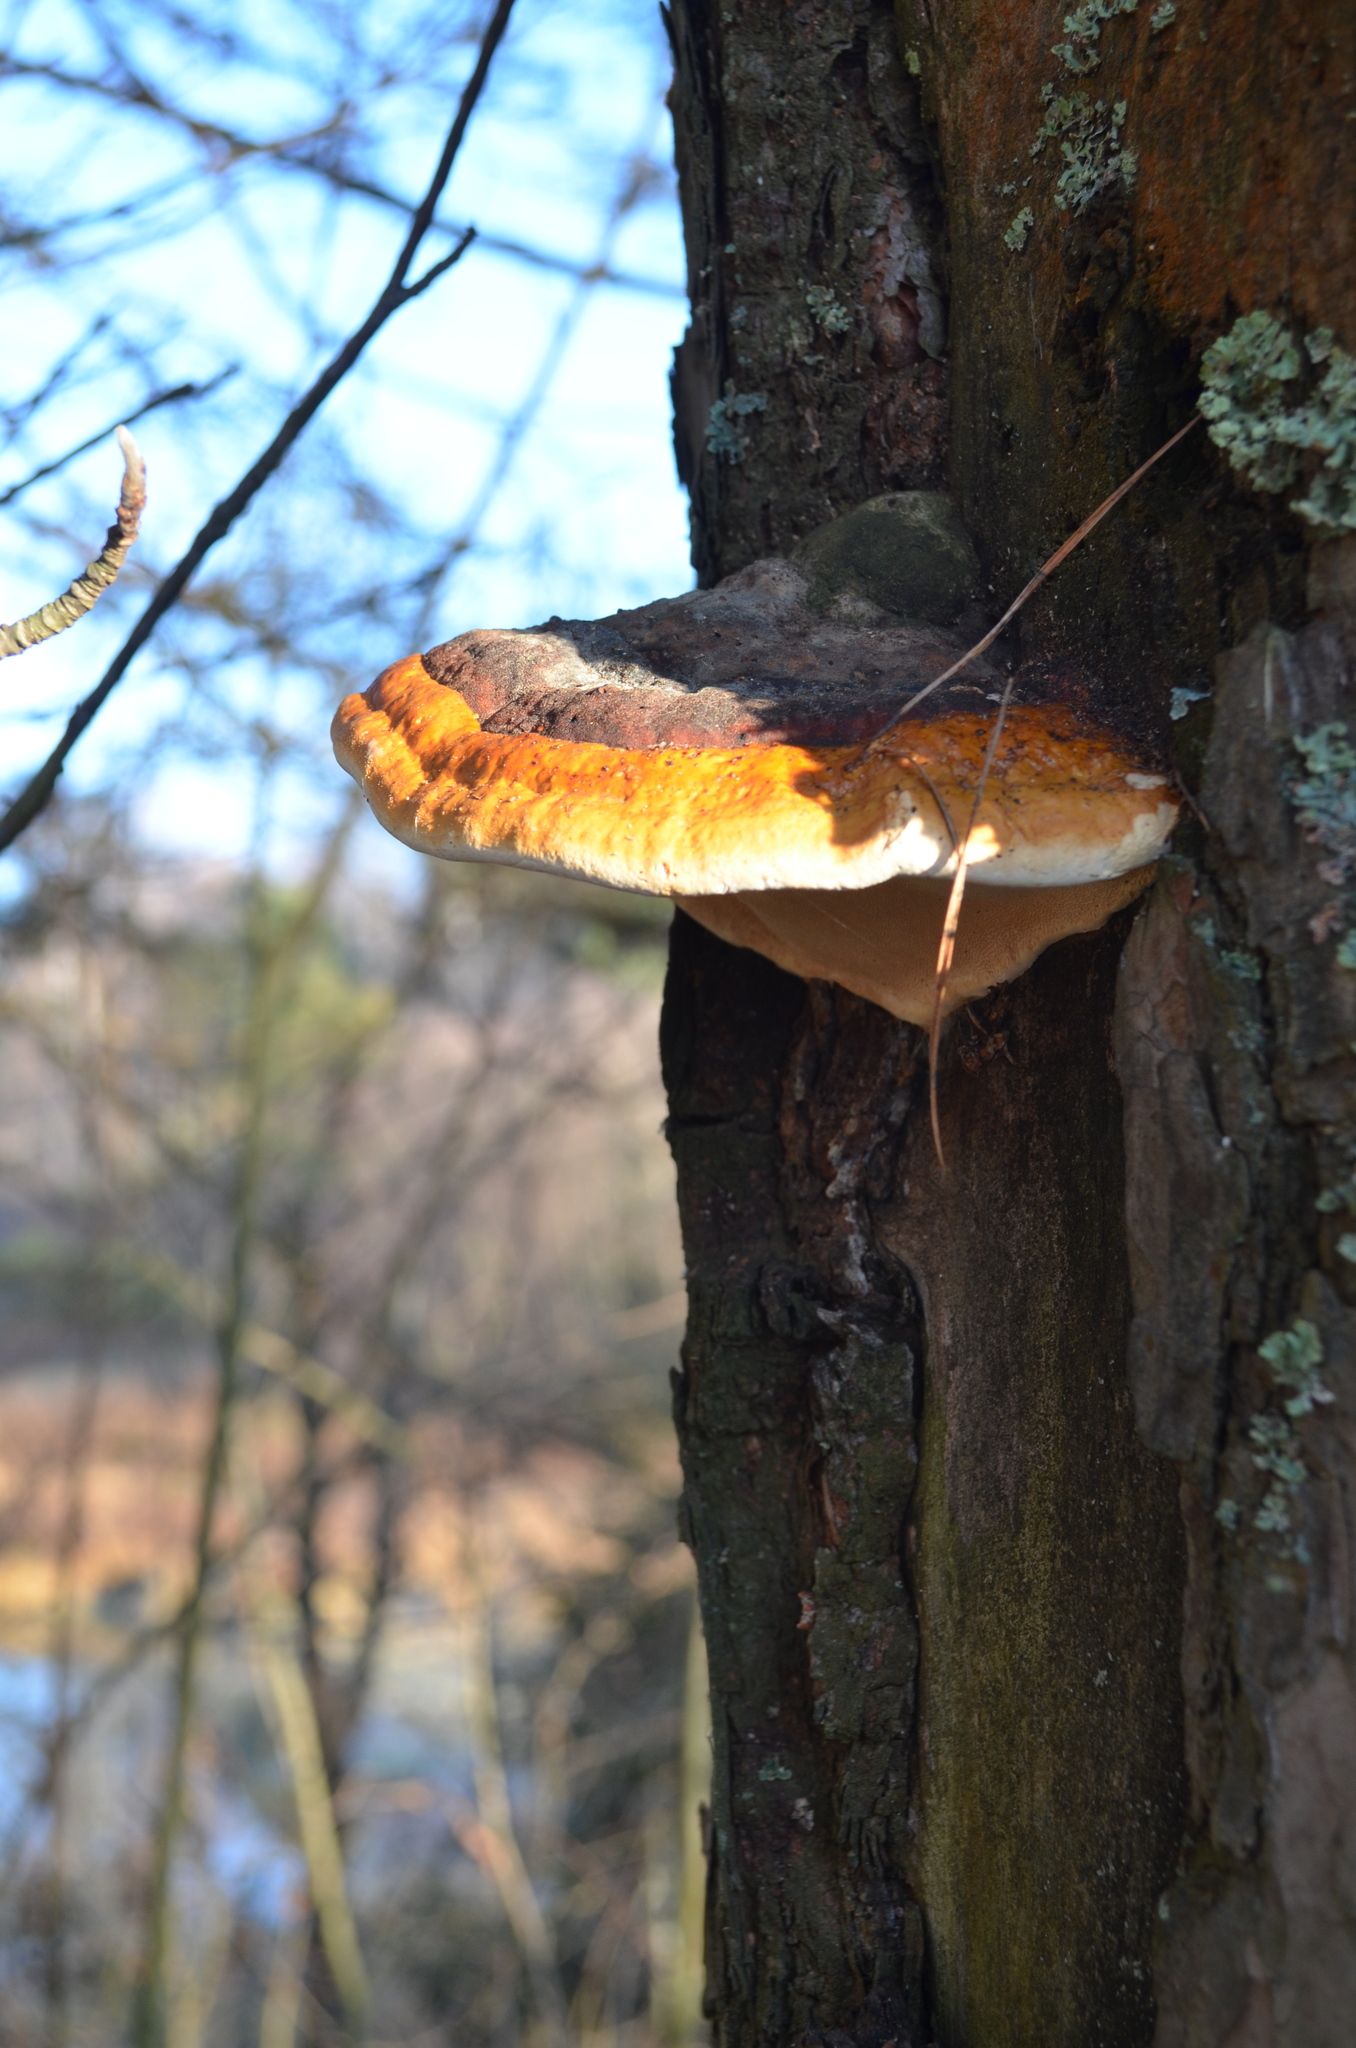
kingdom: Fungi
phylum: Basidiomycota
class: Agaricomycetes
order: Polyporales
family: Fomitopsidaceae
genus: Fomitopsis
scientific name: Fomitopsis pinicola
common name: Red-belted bracket
